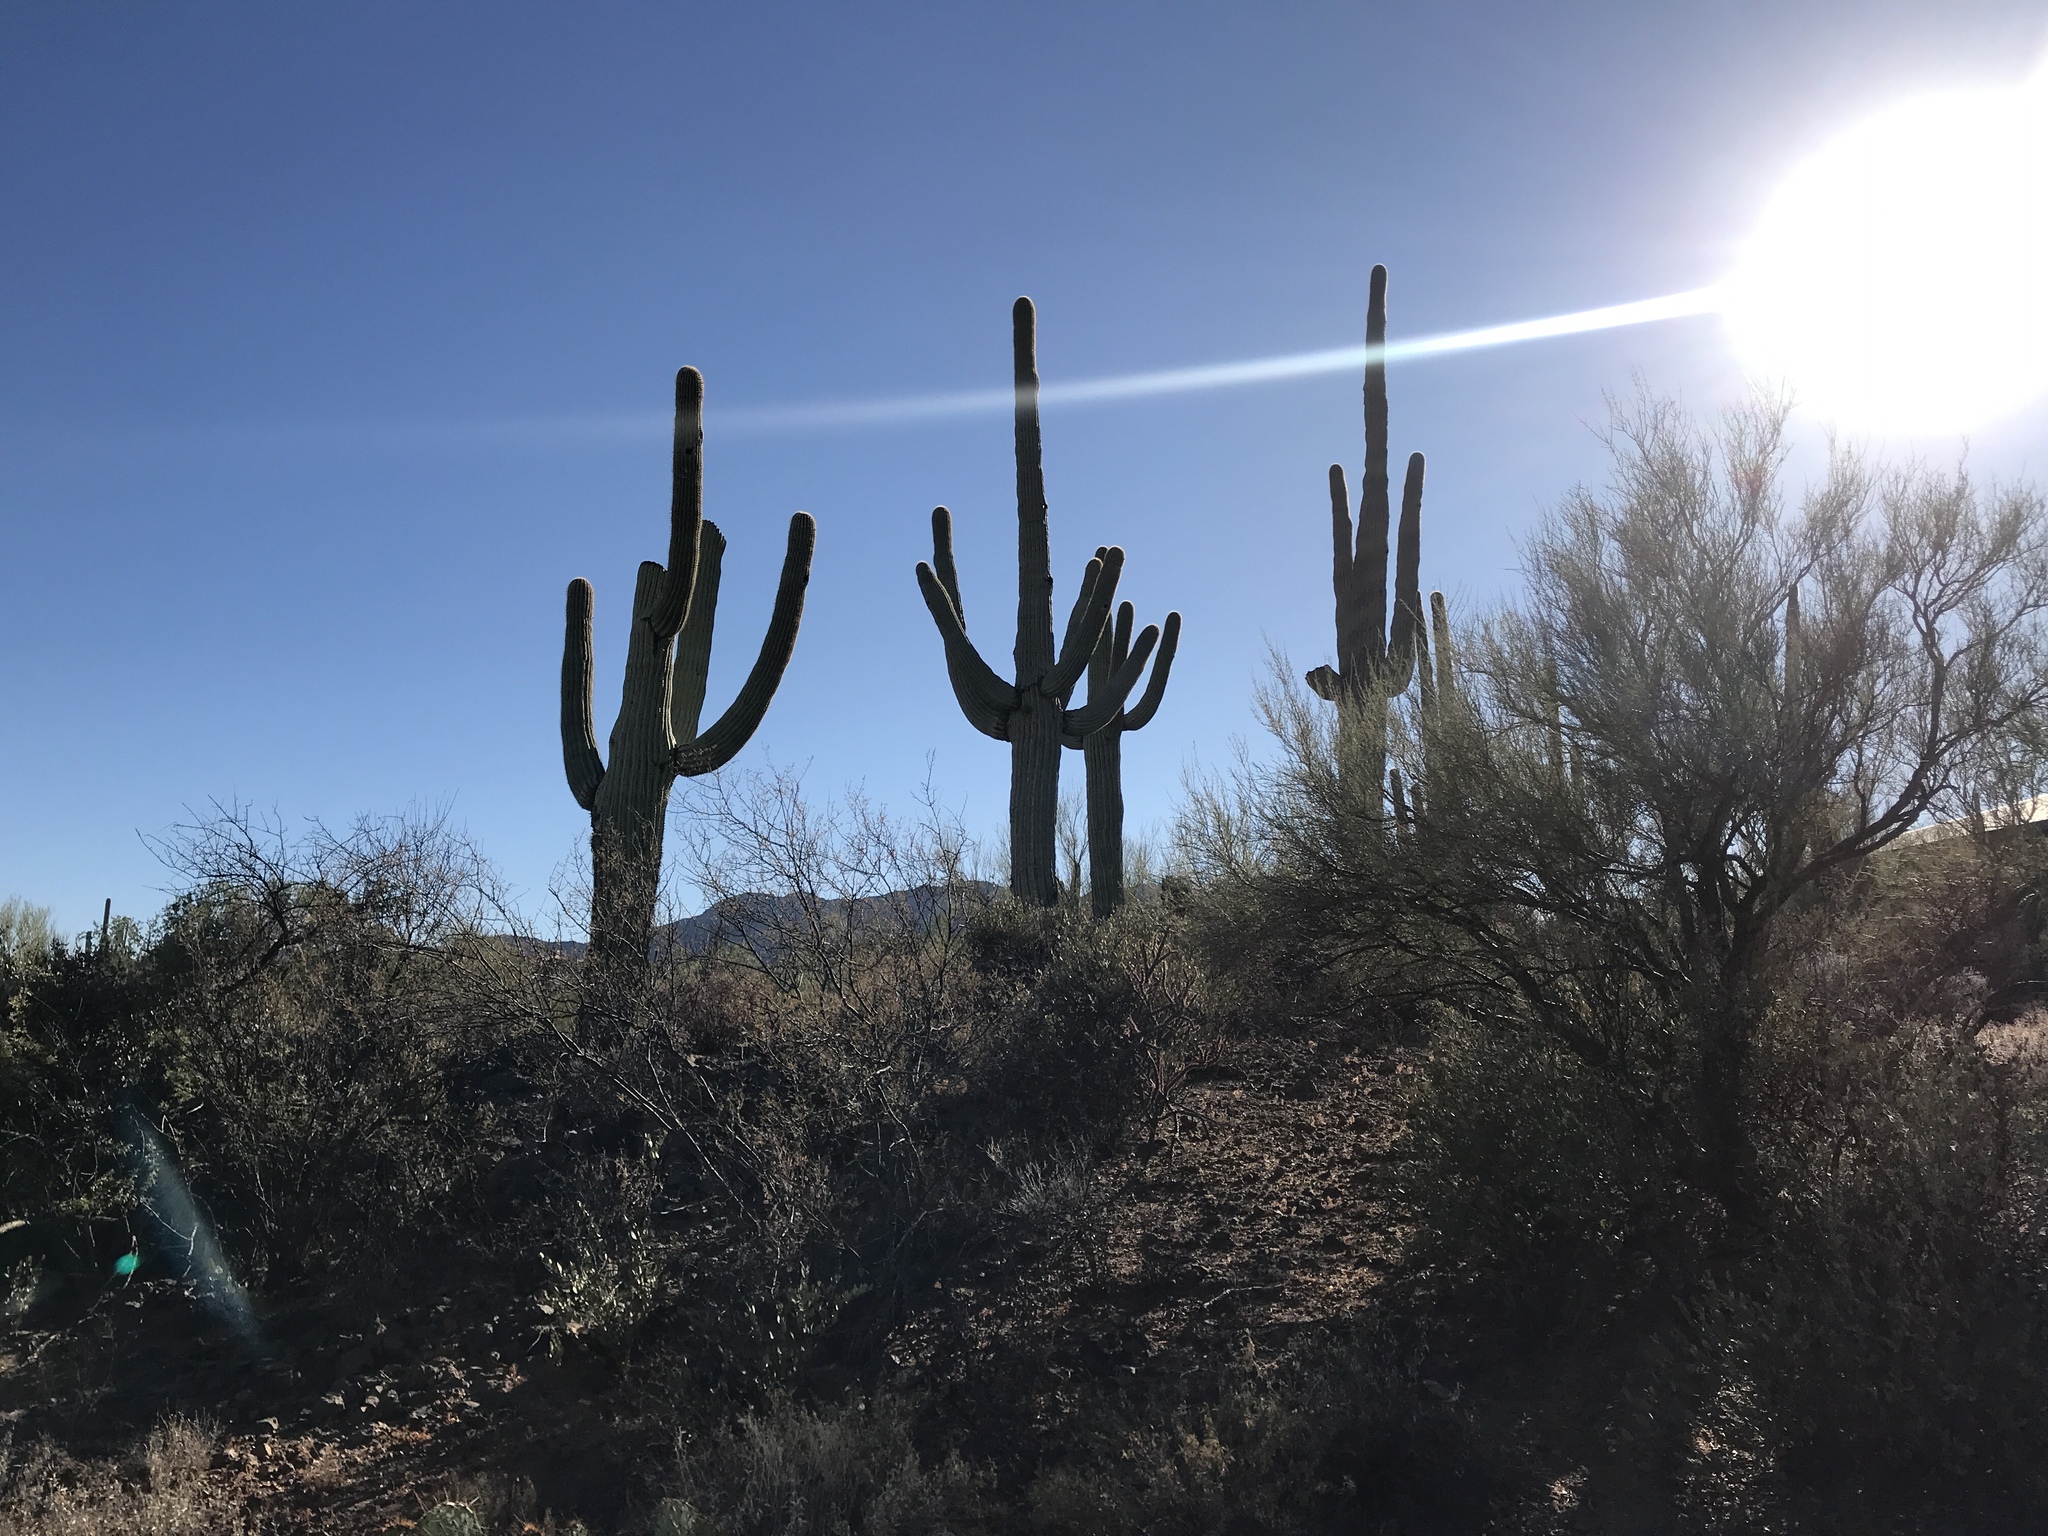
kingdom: Plantae
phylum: Tracheophyta
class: Magnoliopsida
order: Caryophyllales
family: Cactaceae
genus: Carnegiea
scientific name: Carnegiea gigantea
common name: Saguaro
